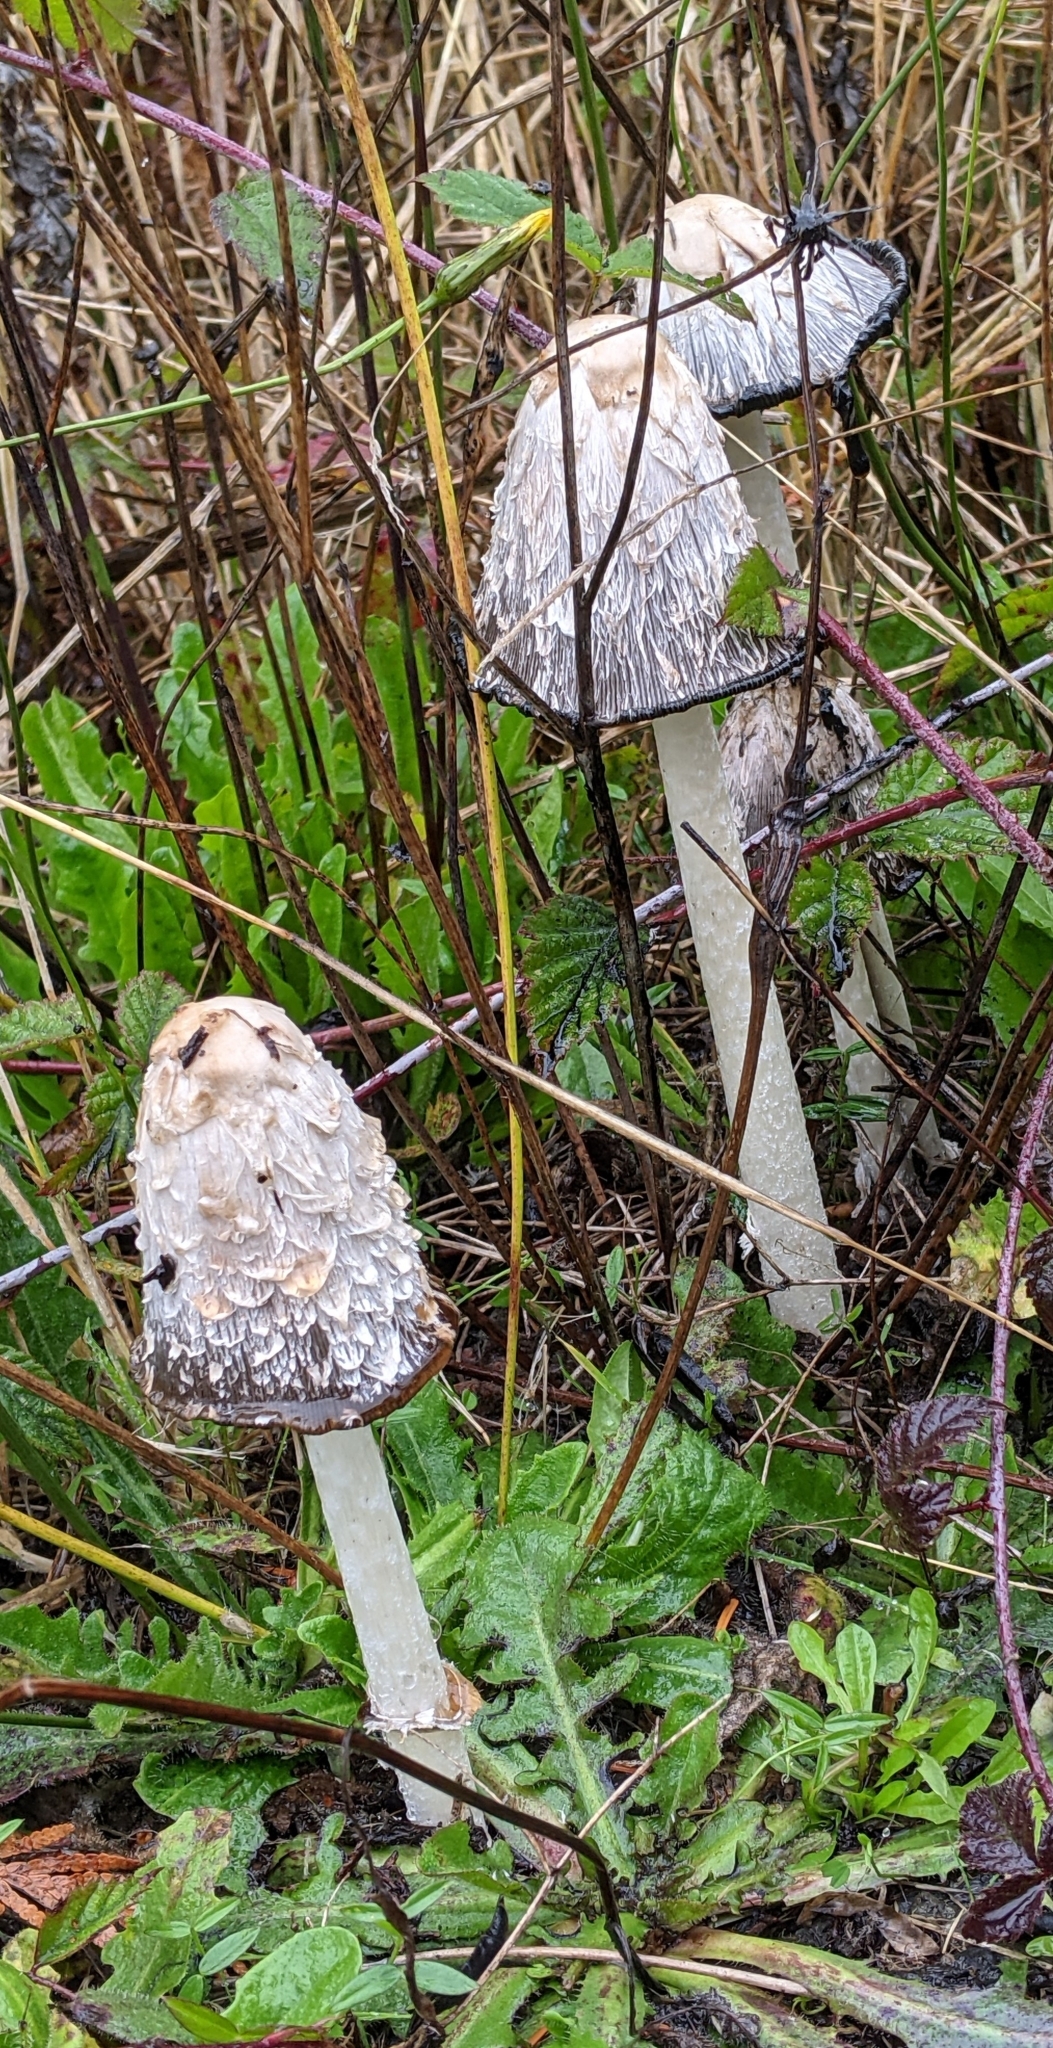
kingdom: Fungi
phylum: Basidiomycota
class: Agaricomycetes
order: Agaricales
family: Agaricaceae
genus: Coprinus
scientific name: Coprinus comatus
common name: Lawyer's wig
